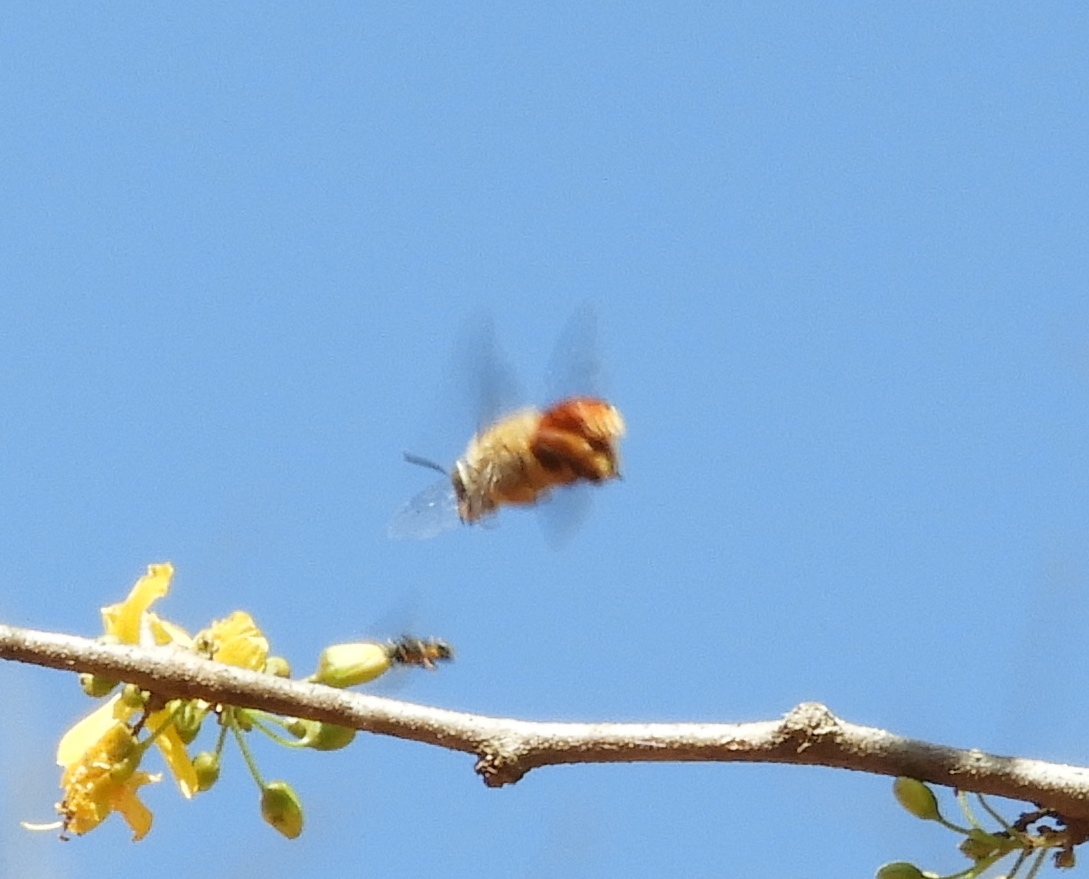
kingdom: Animalia
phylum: Arthropoda
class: Insecta
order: Hymenoptera
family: Apidae
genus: Centris
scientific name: Centris
